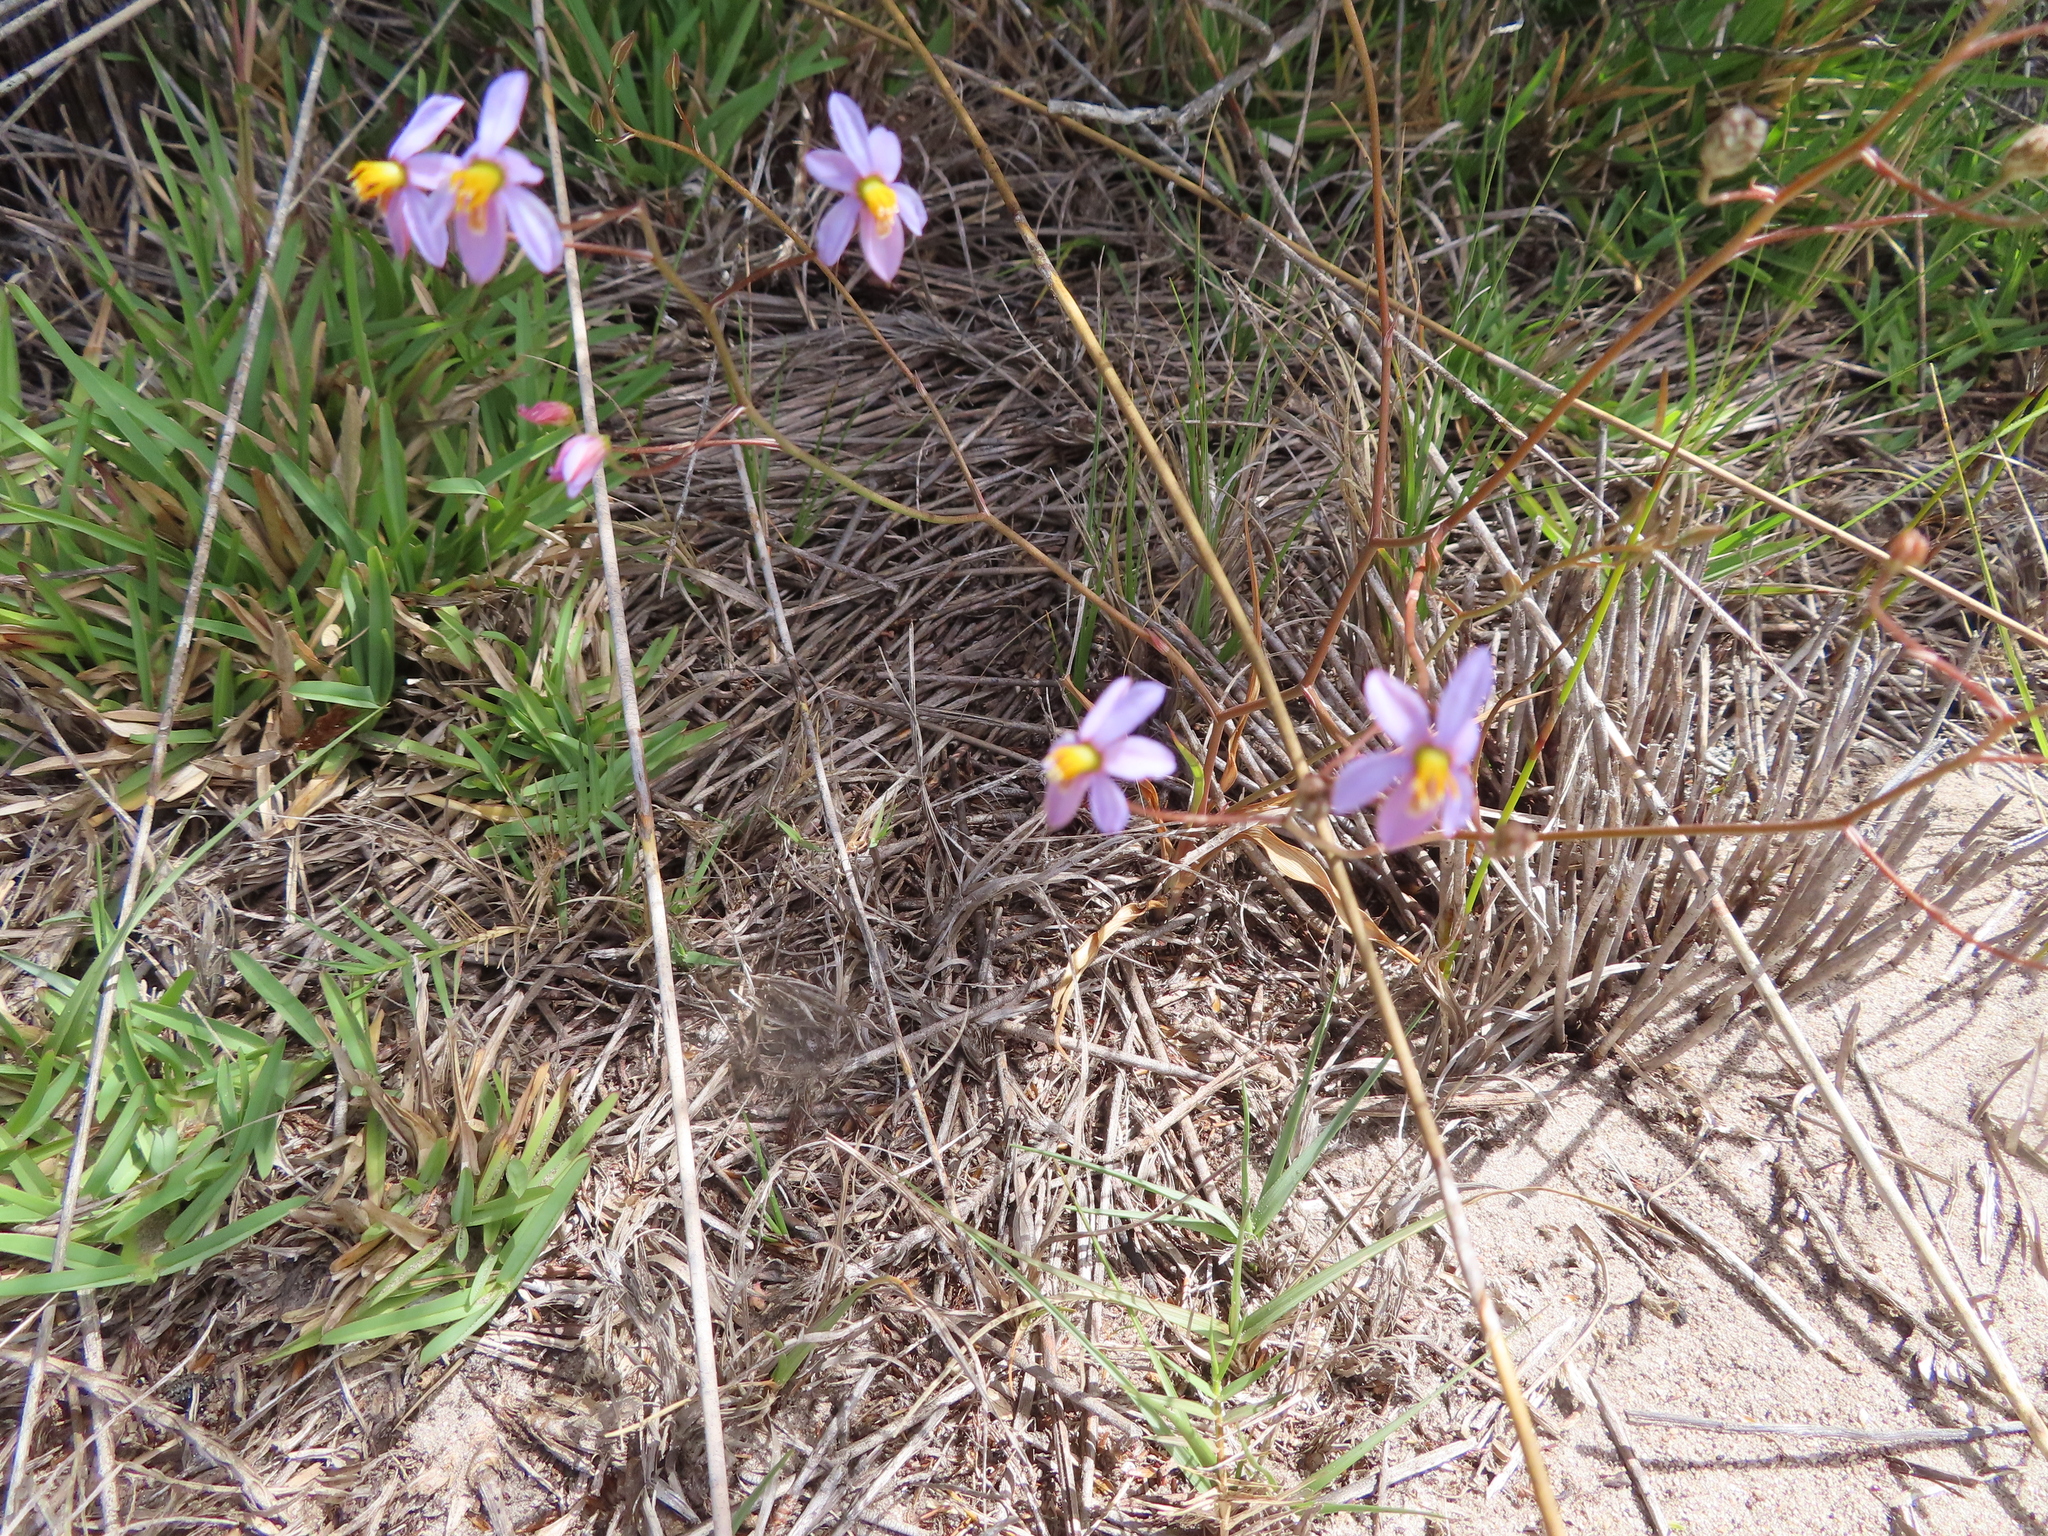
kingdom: Plantae
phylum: Tracheophyta
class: Liliopsida
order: Asparagales
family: Tecophilaeaceae
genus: Cyanella
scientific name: Cyanella hyacinthoides
